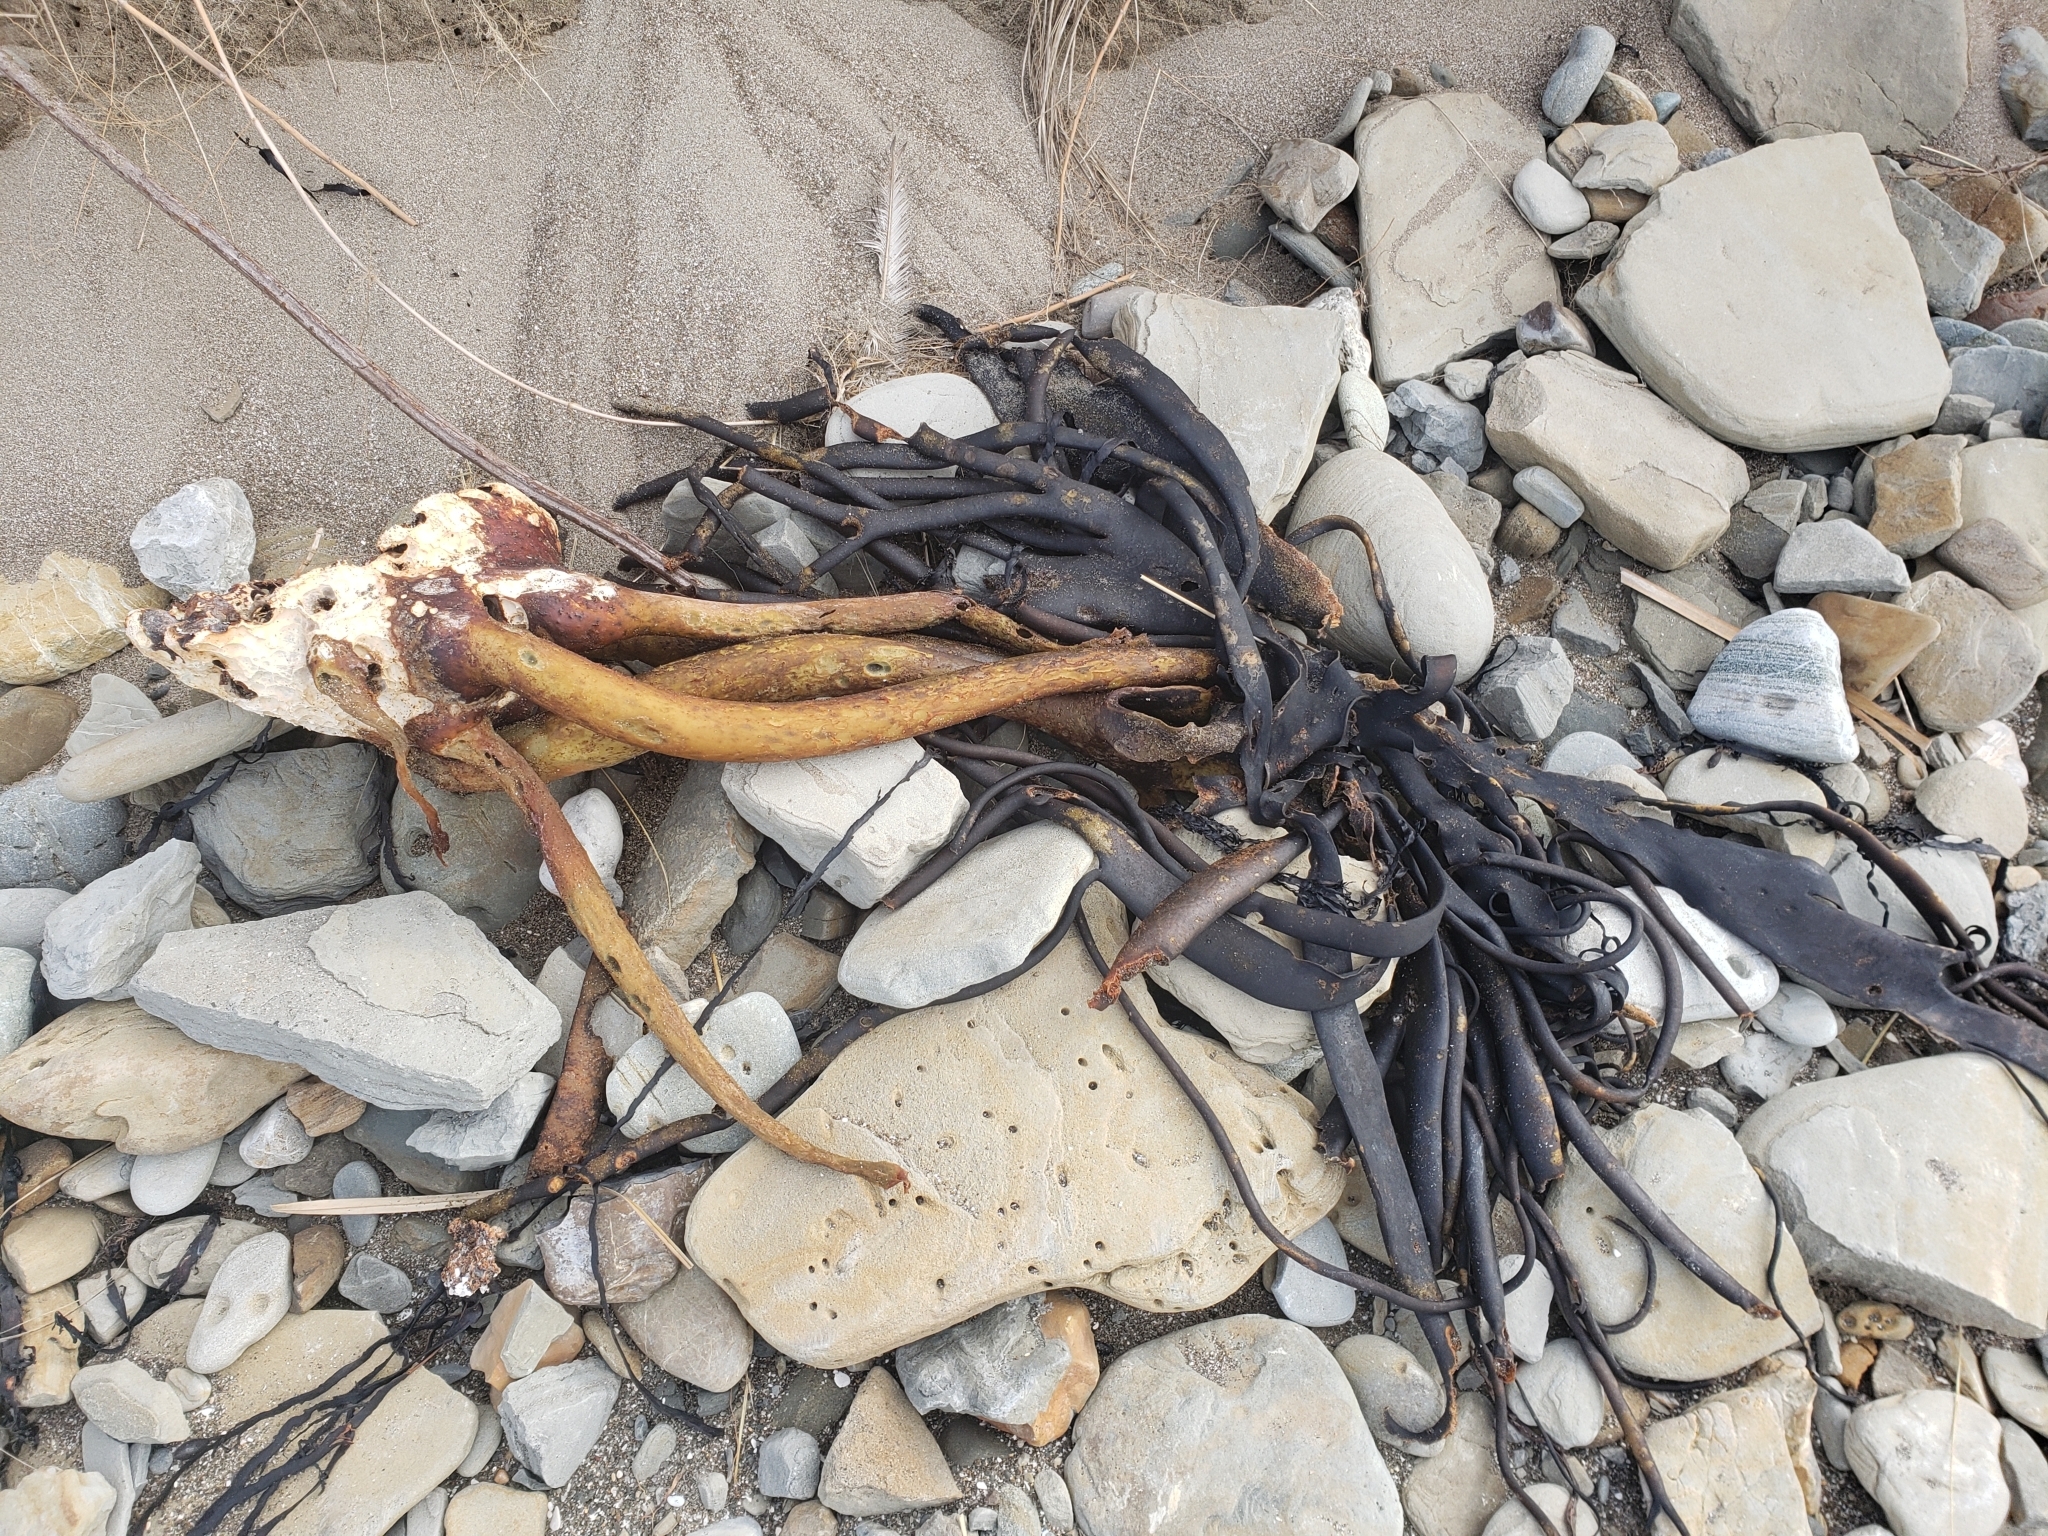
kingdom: Chromista
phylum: Ochrophyta
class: Phaeophyceae
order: Fucales
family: Durvillaeaceae
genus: Durvillaea
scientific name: Durvillaea antarctica
